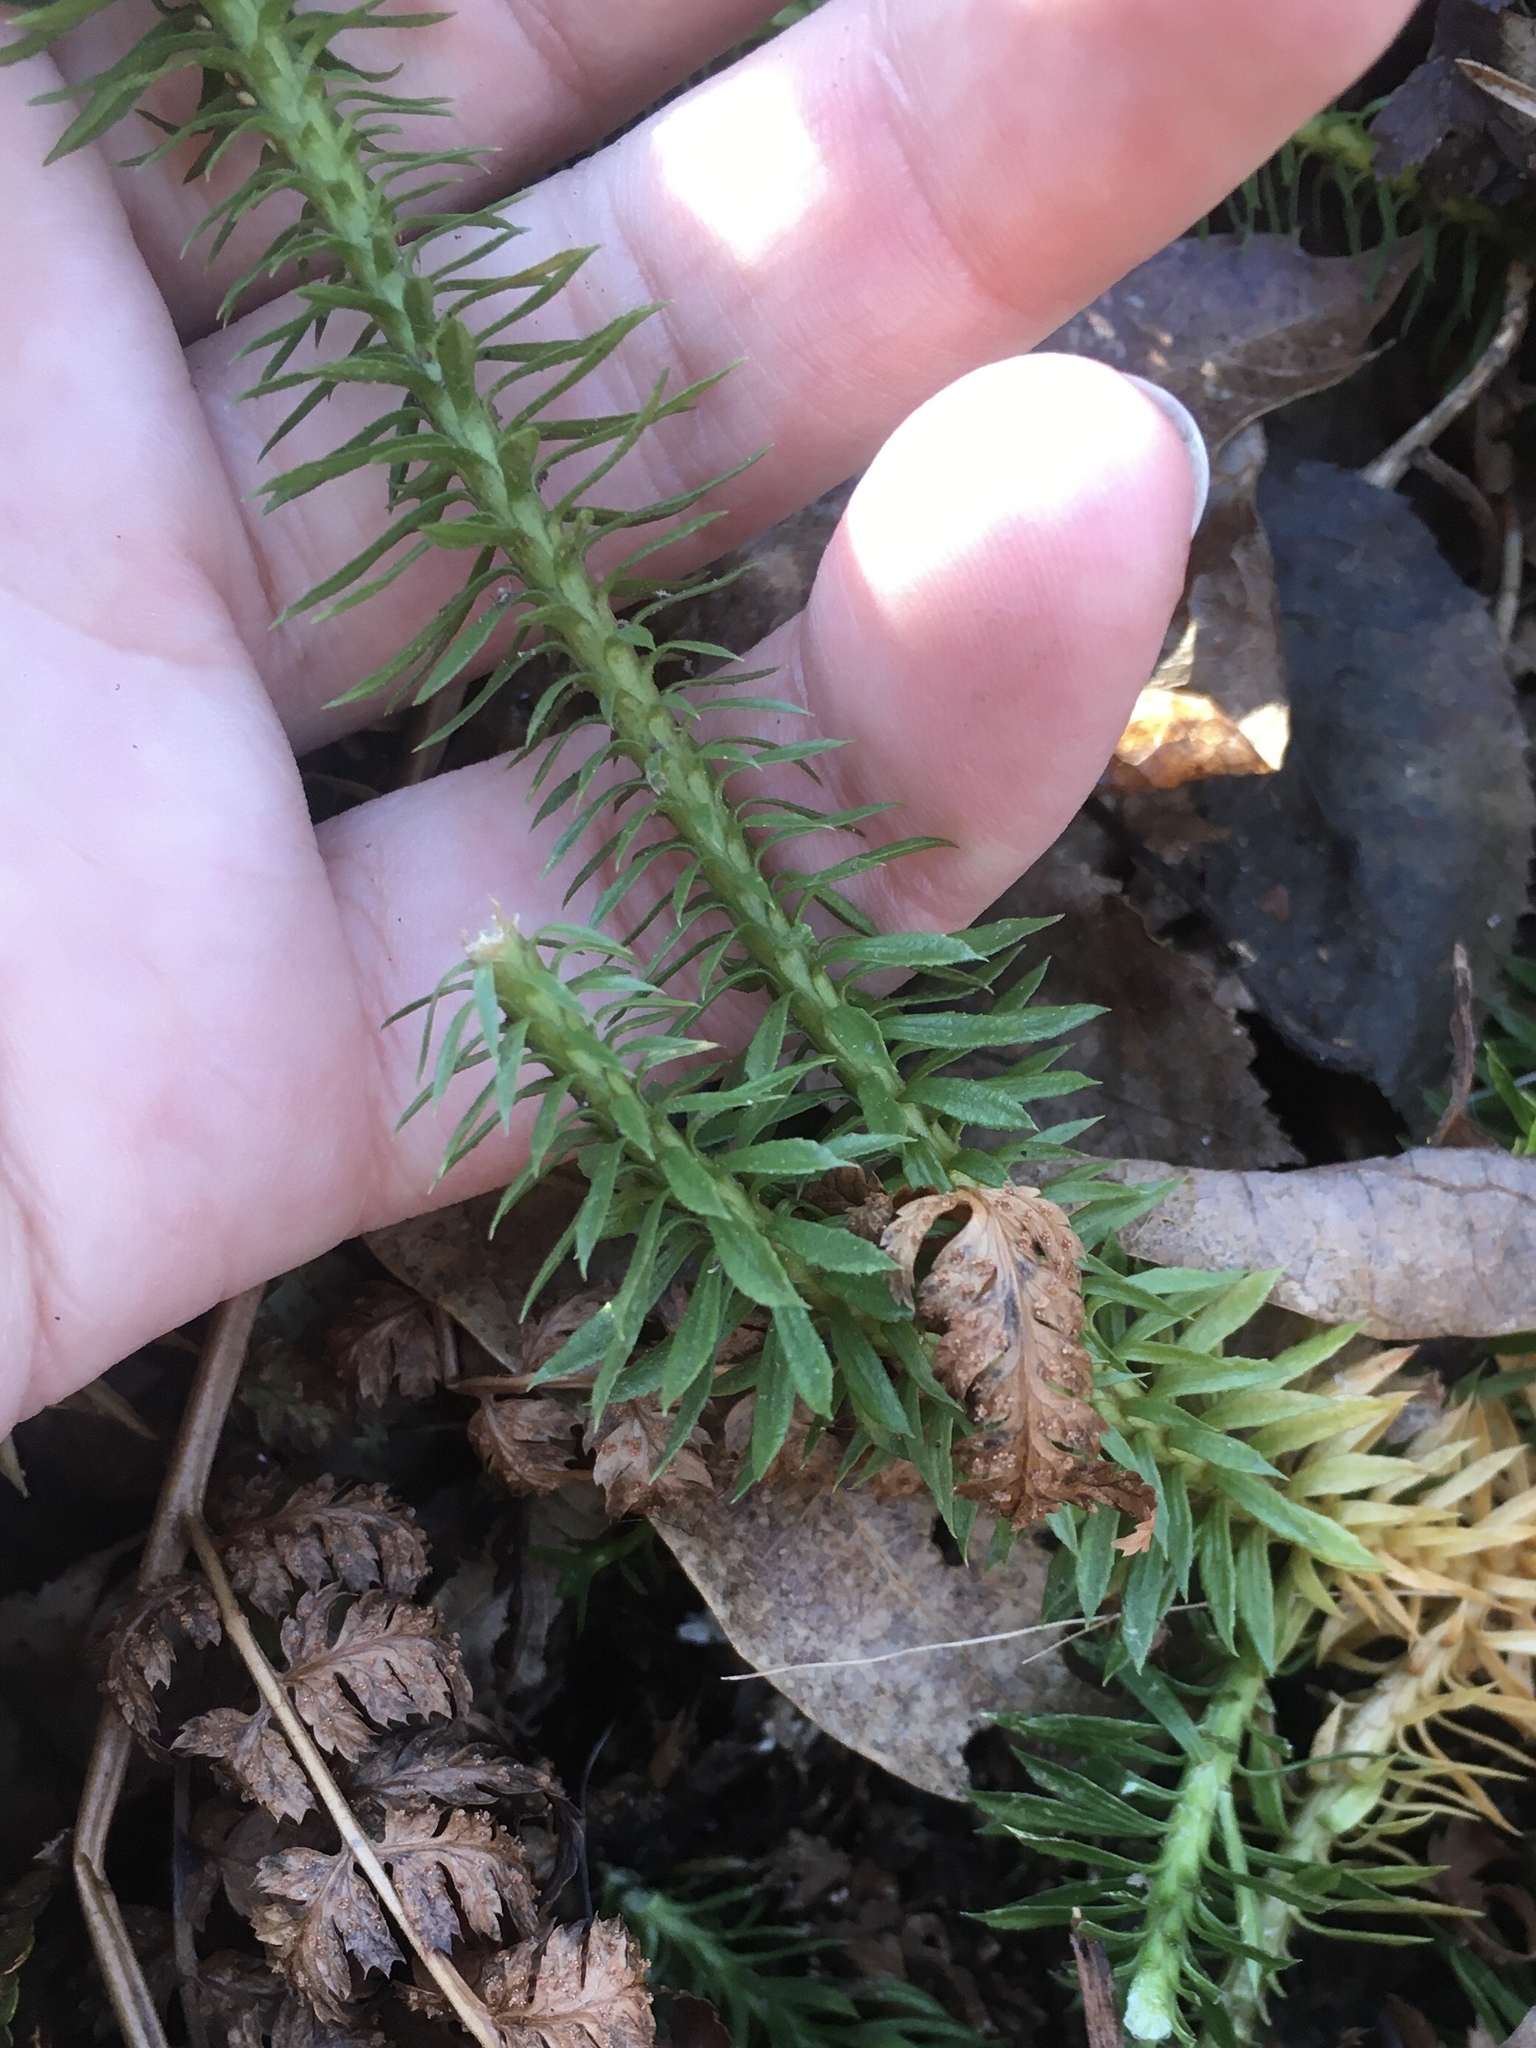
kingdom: Plantae
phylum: Tracheophyta
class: Lycopodiopsida
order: Lycopodiales
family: Lycopodiaceae
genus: Huperzia
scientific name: Huperzia lucidula
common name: Shining clubmoss
